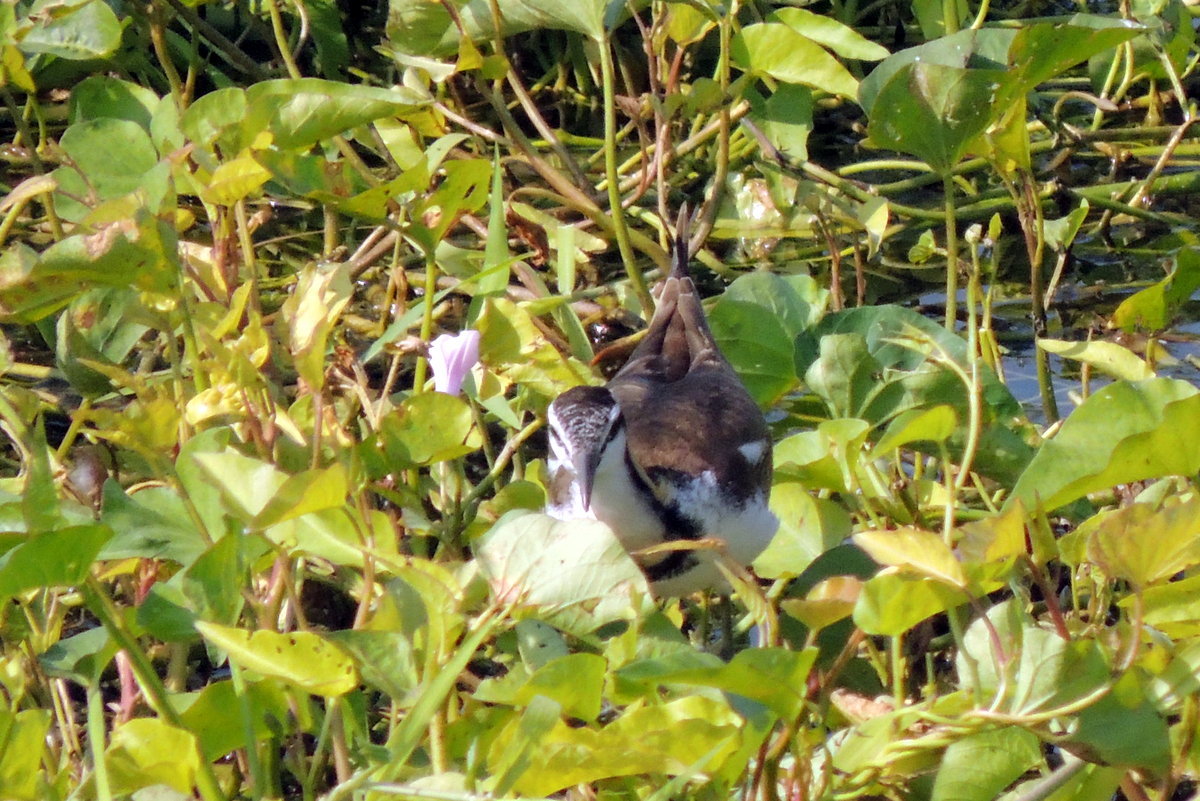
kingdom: Animalia
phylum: Chordata
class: Aves
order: Charadriiformes
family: Jacanidae
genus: Hydrophasianus
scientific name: Hydrophasianus chirurgus
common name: Pheasant-tailed jacana
